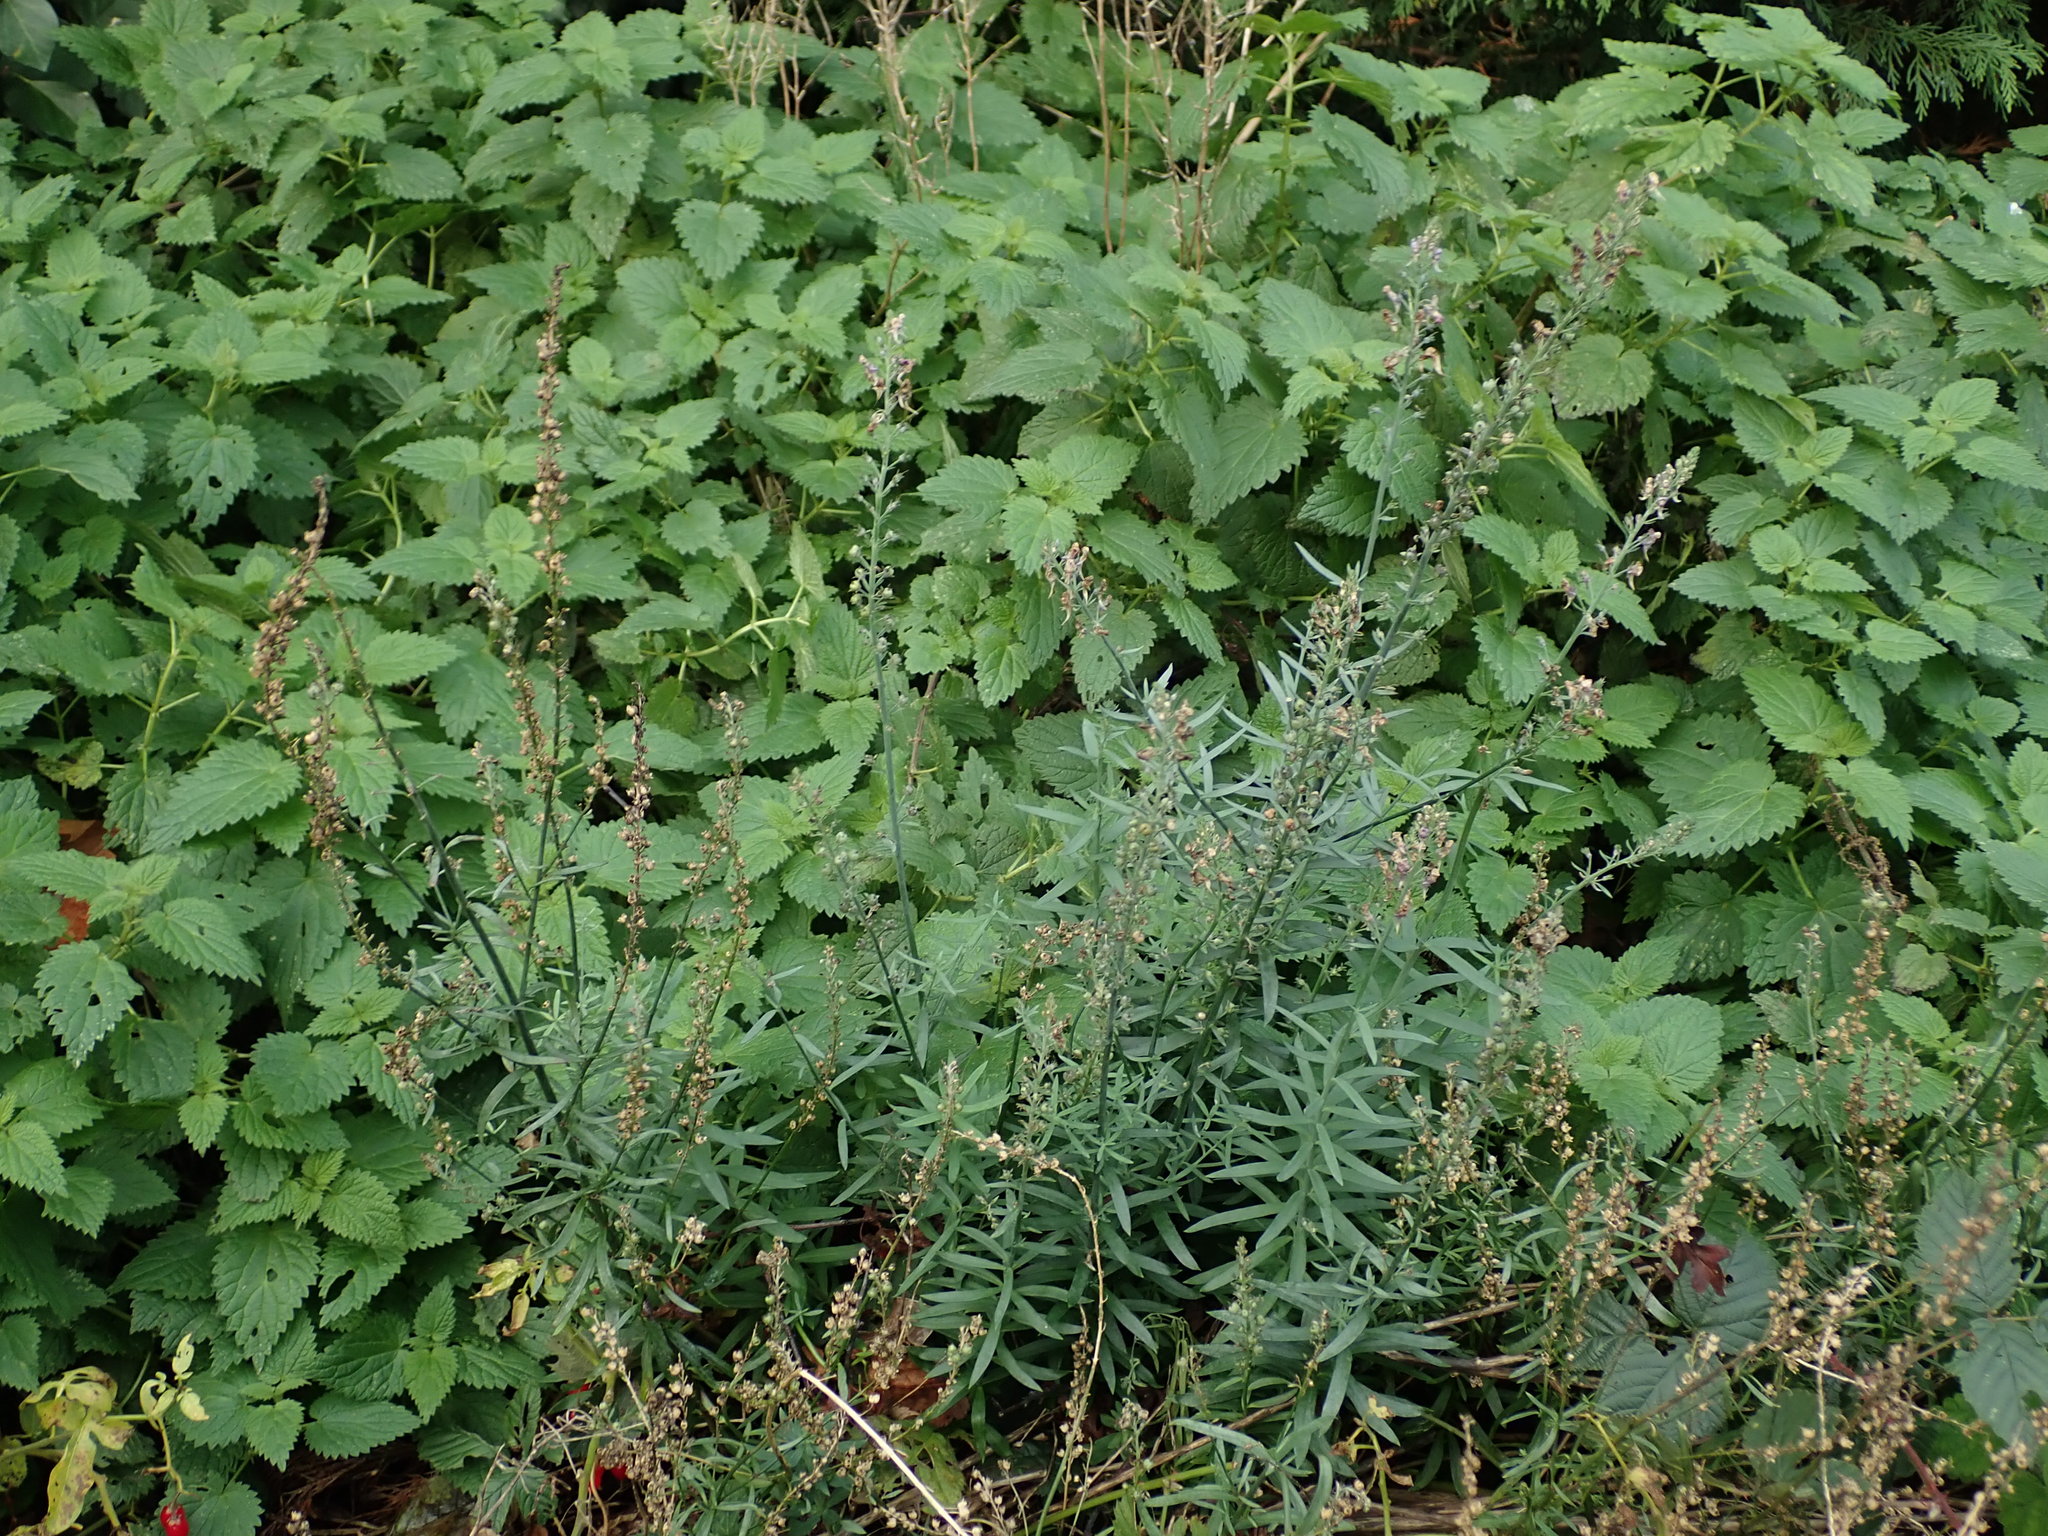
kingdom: Plantae
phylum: Tracheophyta
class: Magnoliopsida
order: Lamiales
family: Plantaginaceae
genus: Linaria
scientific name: Linaria purpurea
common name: Purple toadflax
